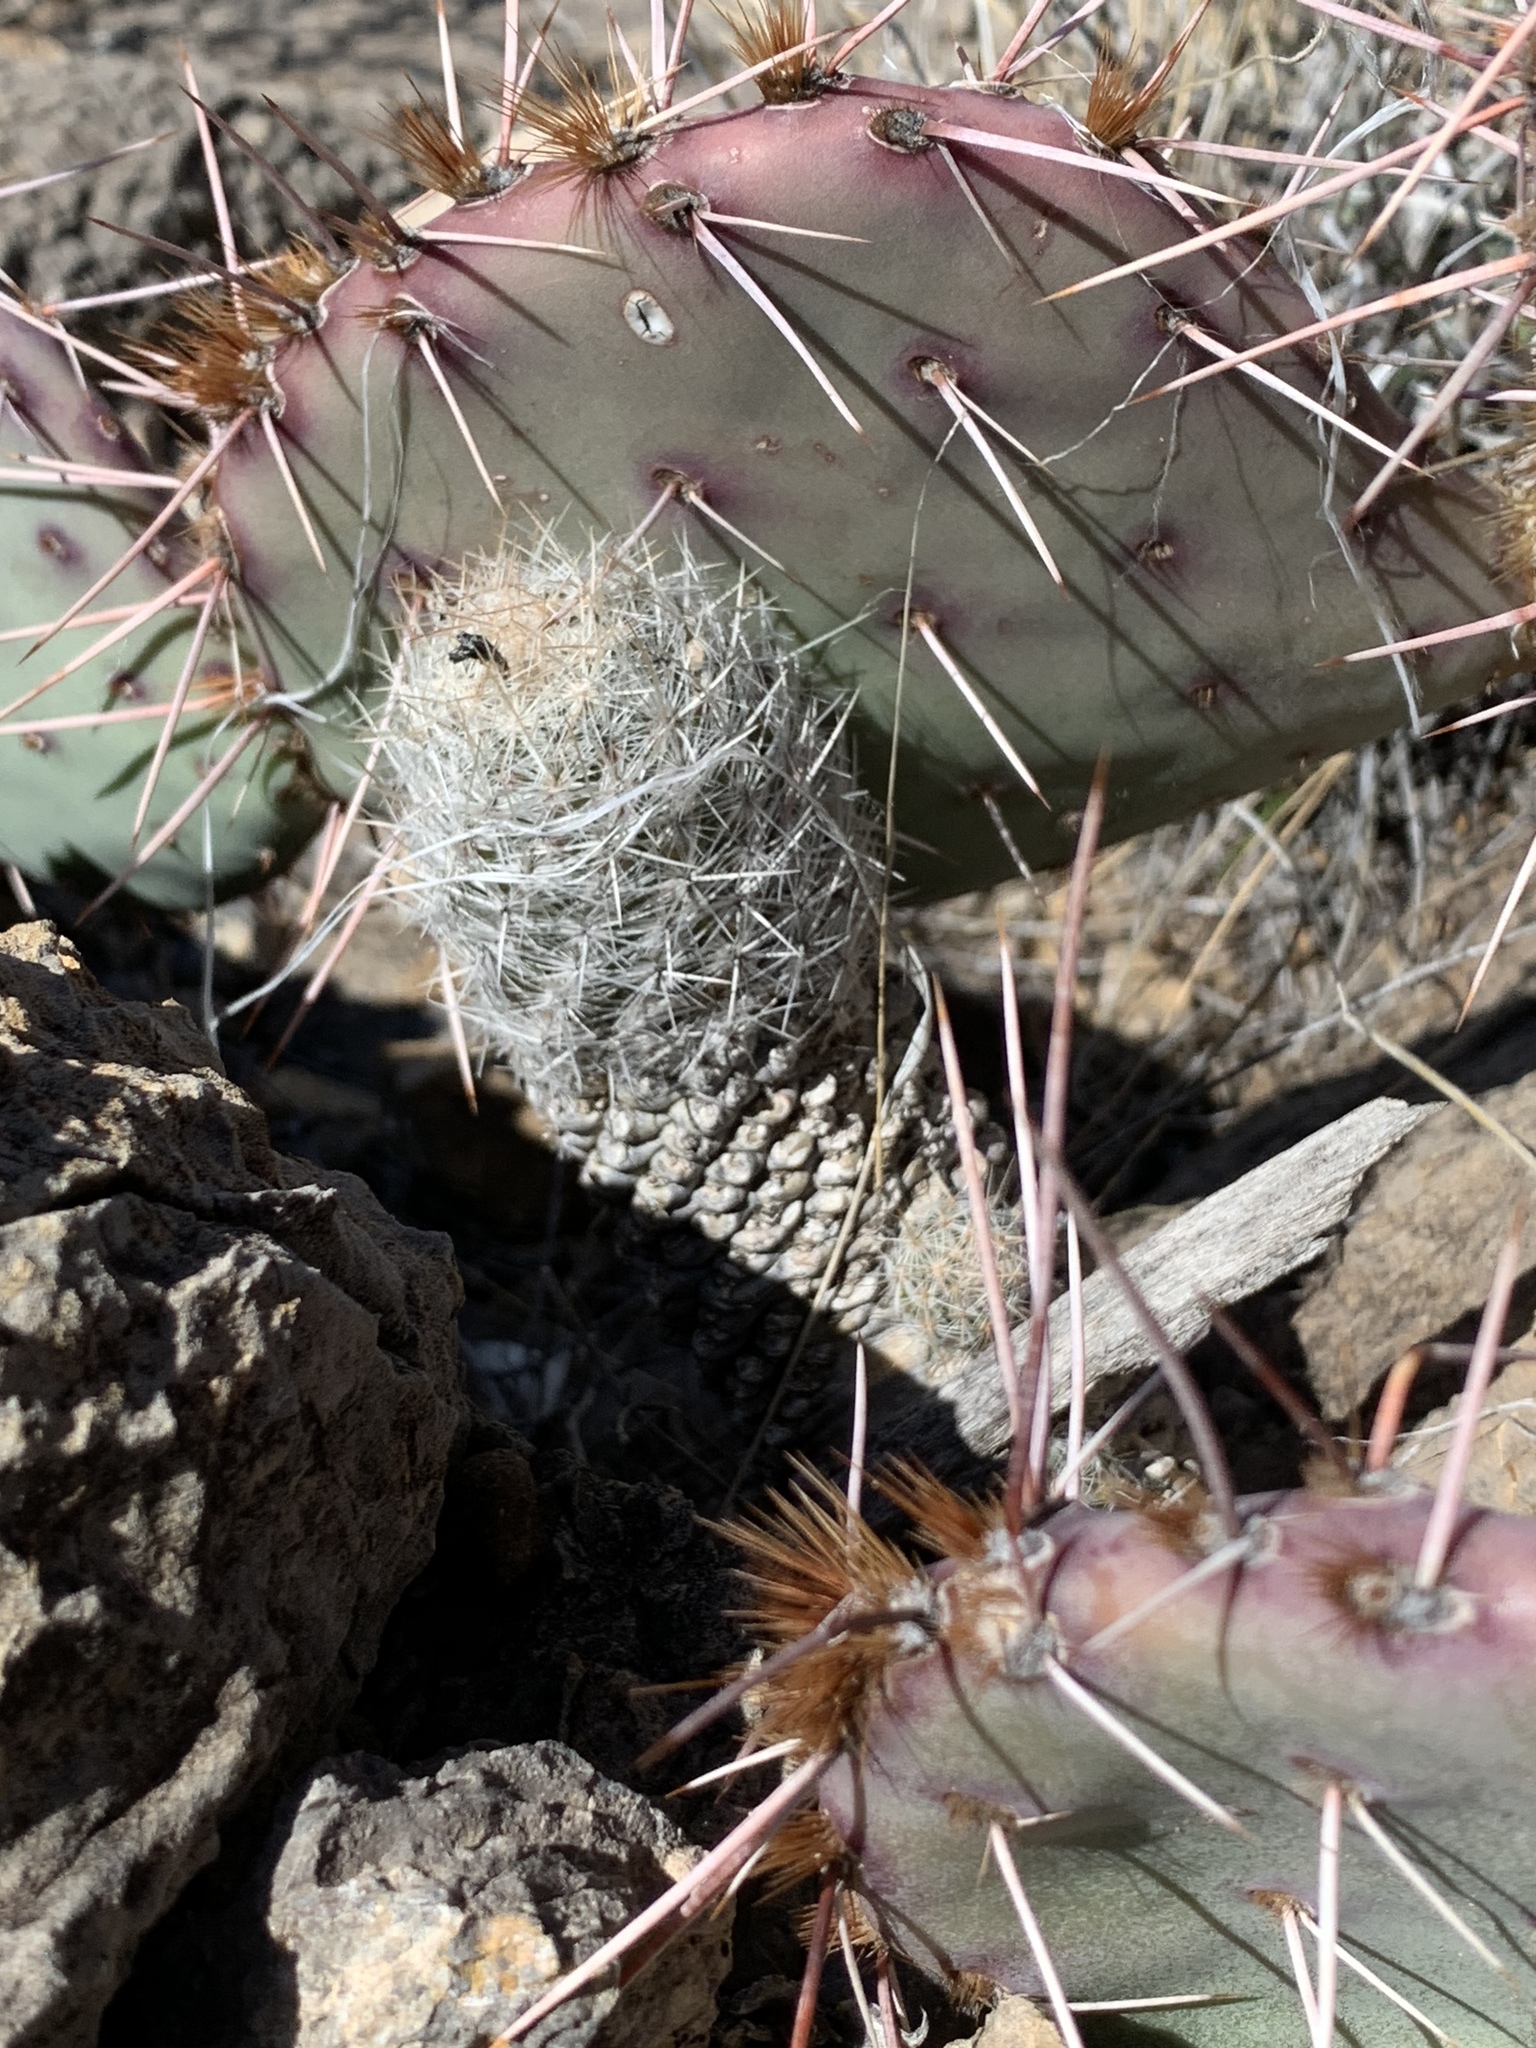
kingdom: Plantae
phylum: Tracheophyta
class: Magnoliopsida
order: Caryophyllales
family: Cactaceae
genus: Pelecyphora
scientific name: Pelecyphora tuberculosa
